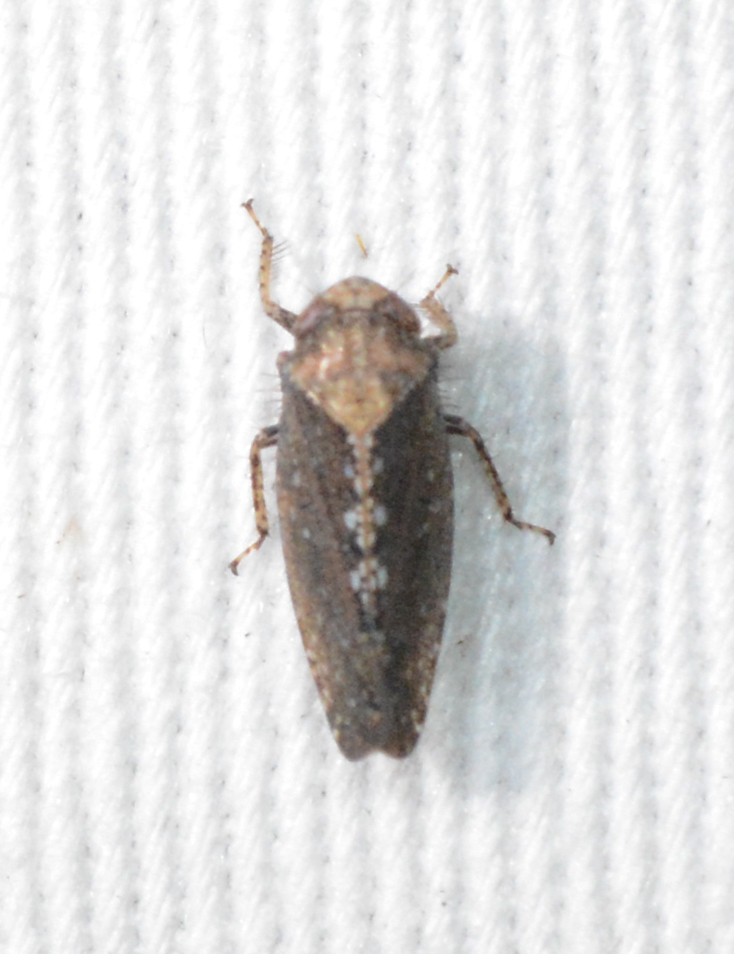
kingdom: Animalia
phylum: Arthropoda
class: Insecta
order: Hemiptera
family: Cicadellidae
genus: Excultanus
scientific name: Excultanus excultus
